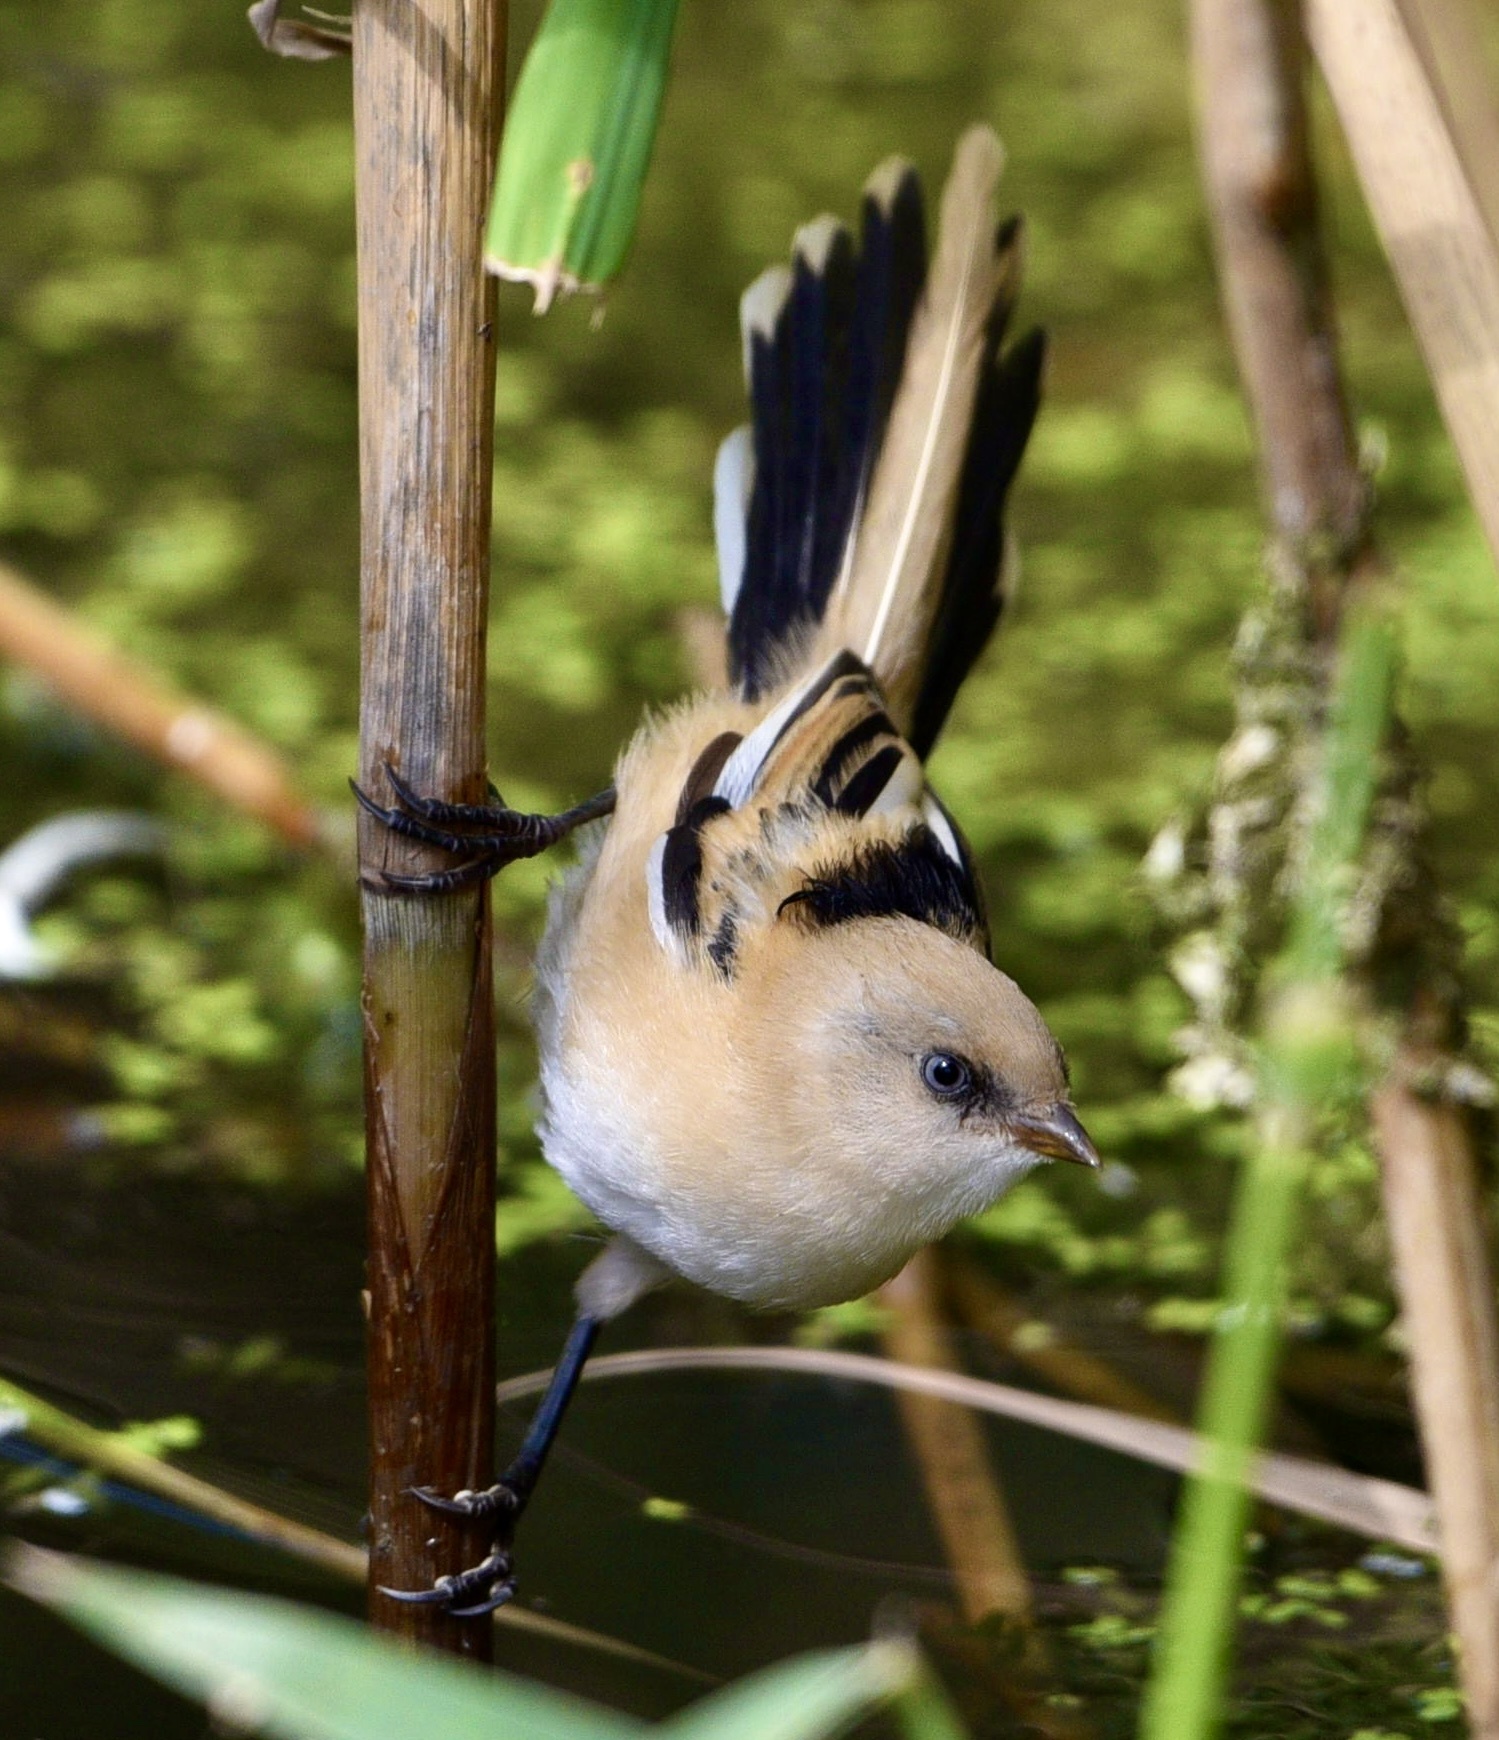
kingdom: Animalia
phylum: Chordata
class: Aves
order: Passeriformes
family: Panuridae
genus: Panurus
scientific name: Panurus biarmicus
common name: Bearded reedling
